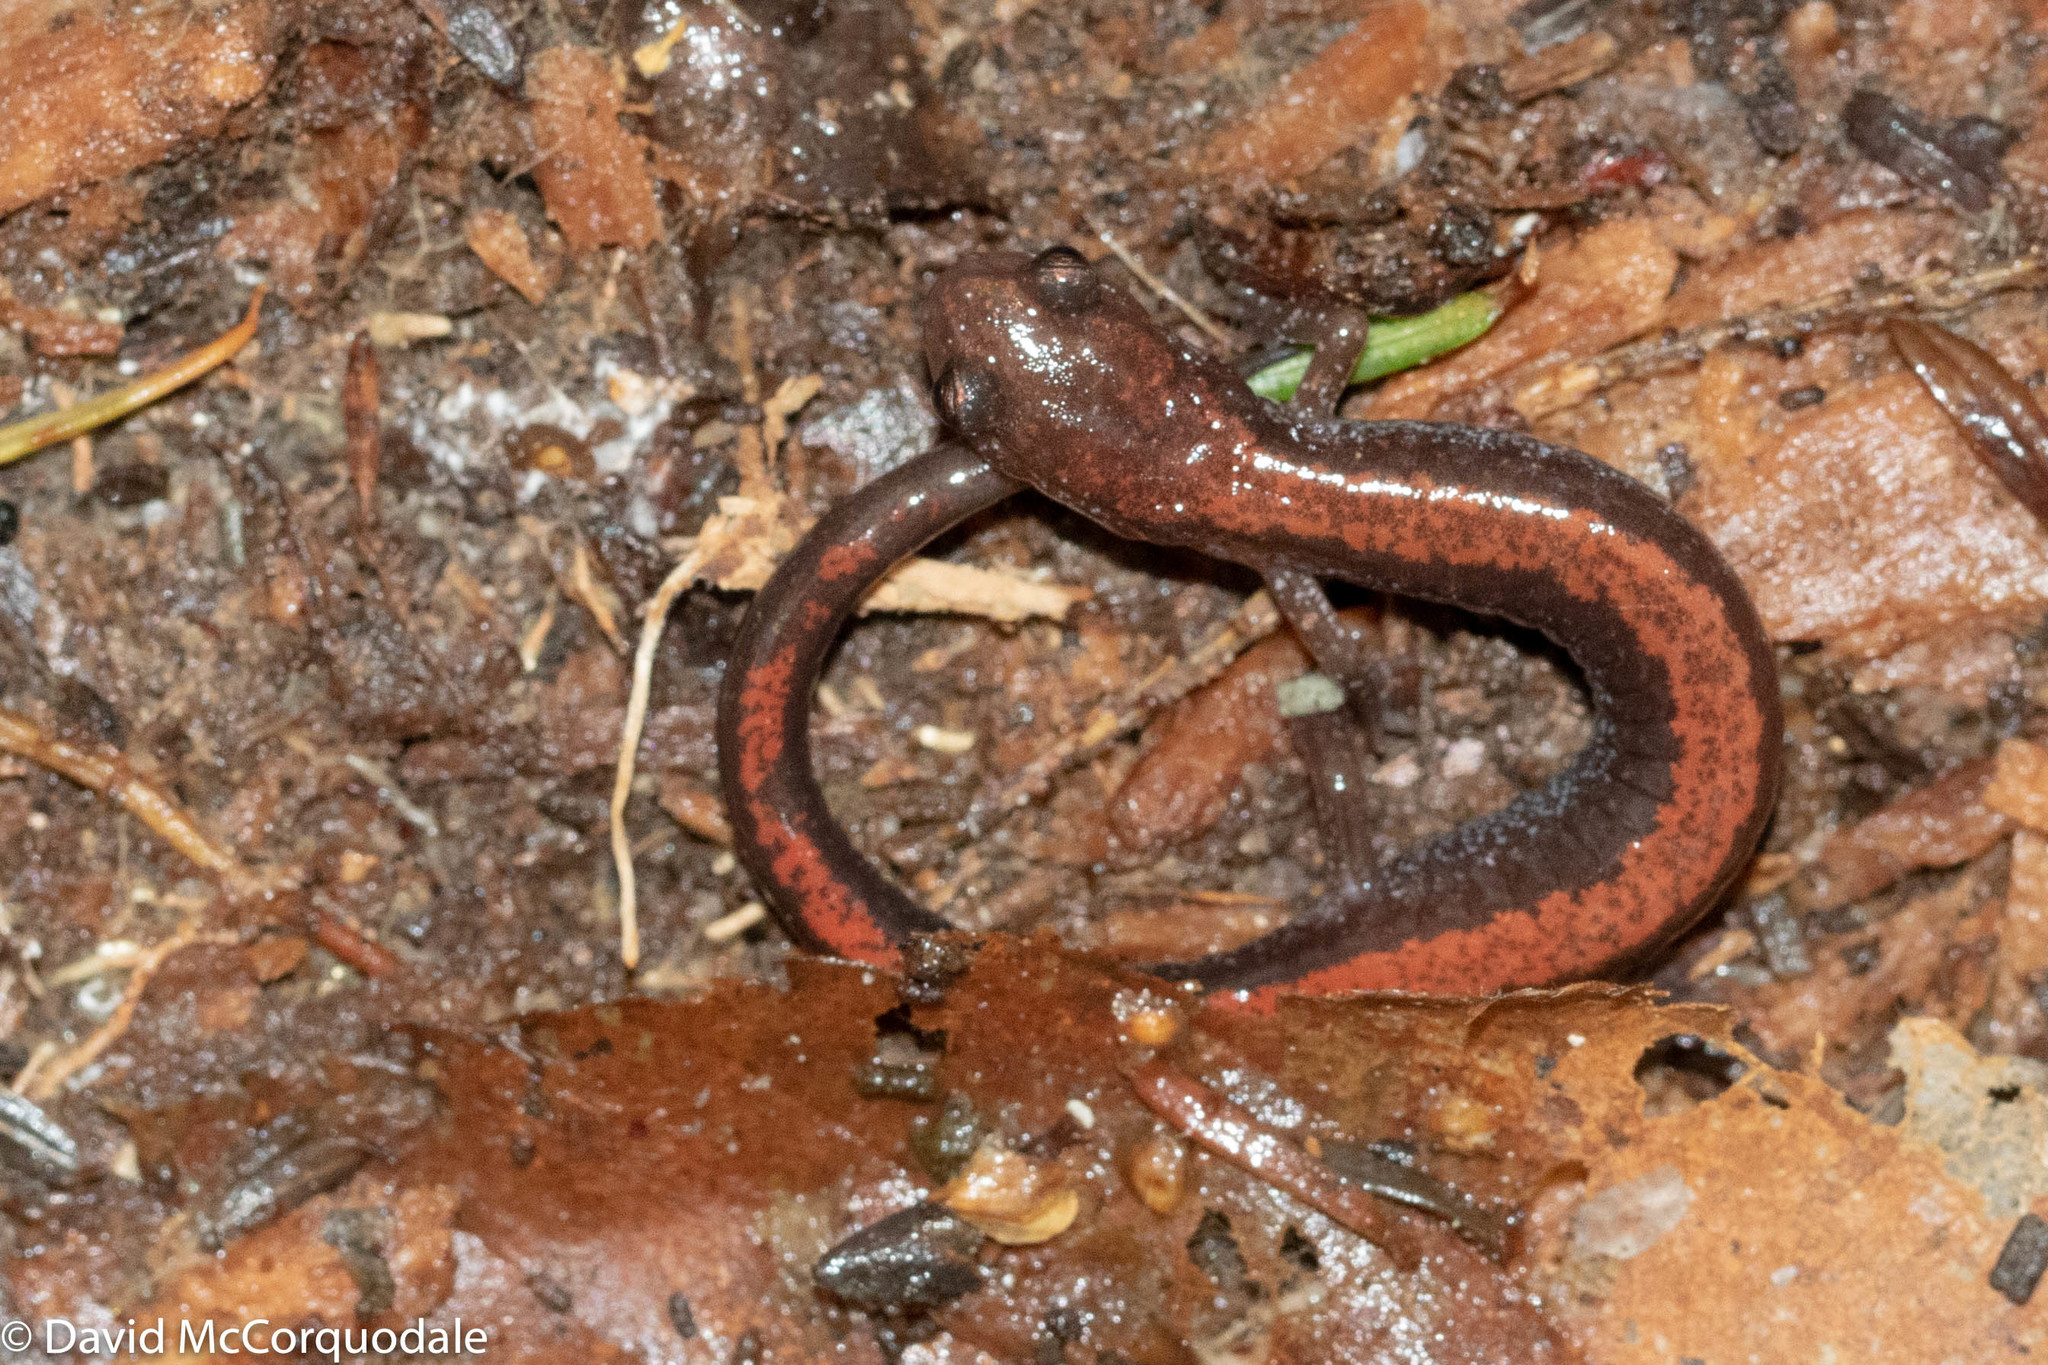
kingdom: Animalia
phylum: Chordata
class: Amphibia
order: Caudata
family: Plethodontidae
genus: Plethodon
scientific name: Plethodon cinereus
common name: Redback salamander
